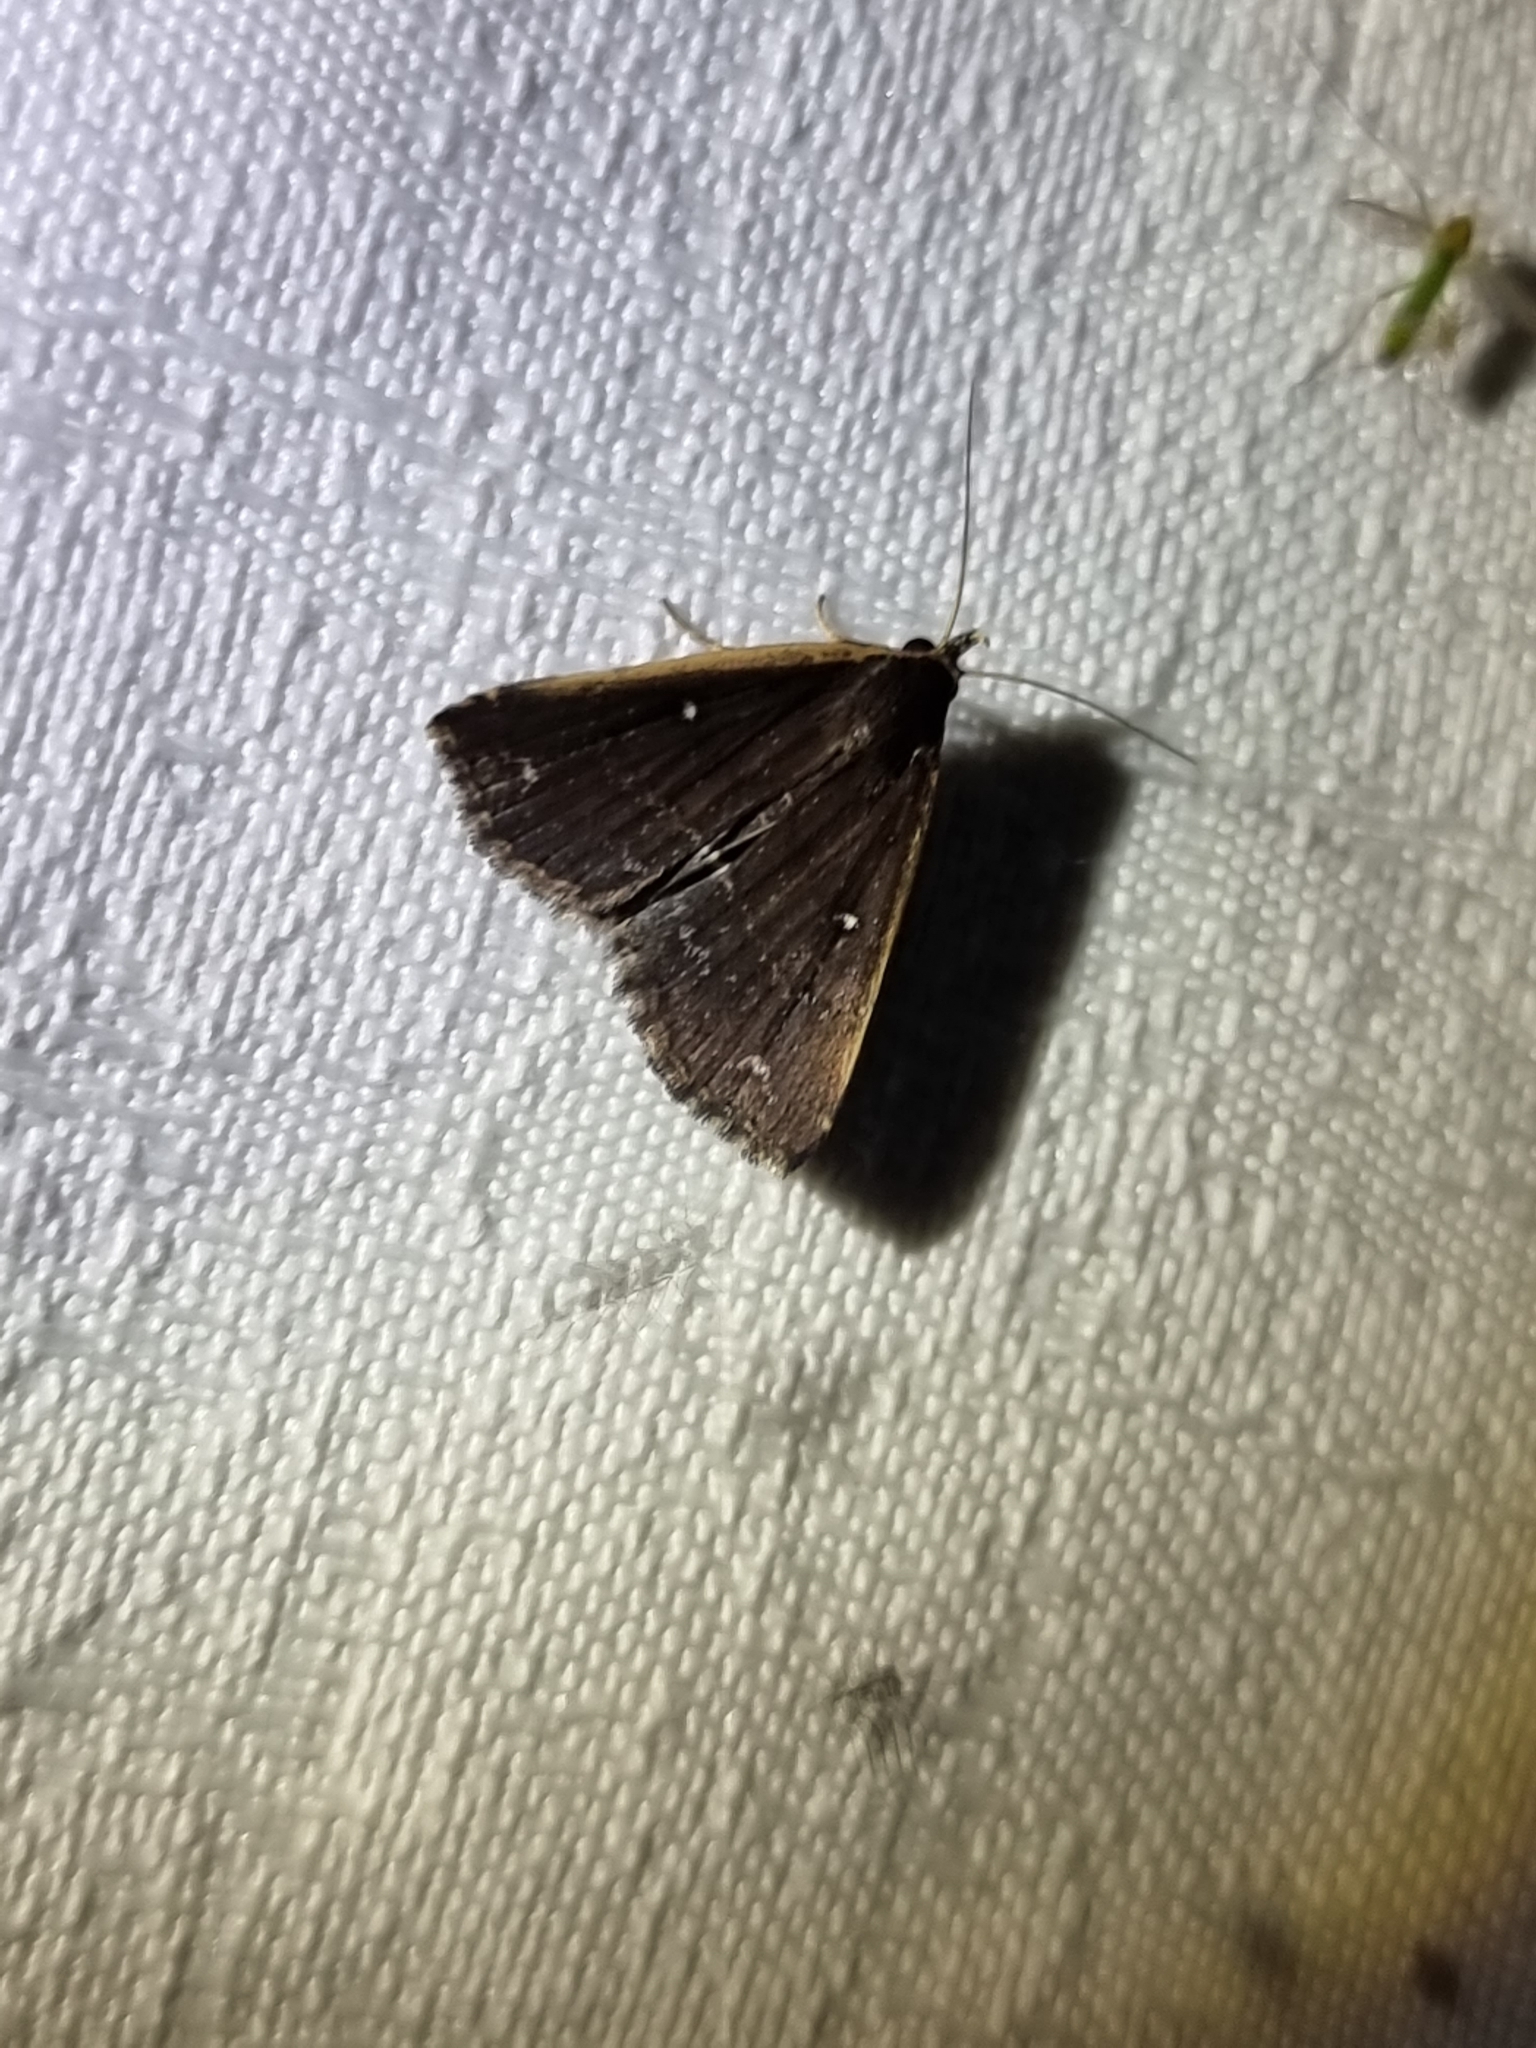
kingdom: Animalia
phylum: Arthropoda
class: Insecta
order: Lepidoptera
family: Erebidae
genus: Adrapsa
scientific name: Adrapsa ablualis
